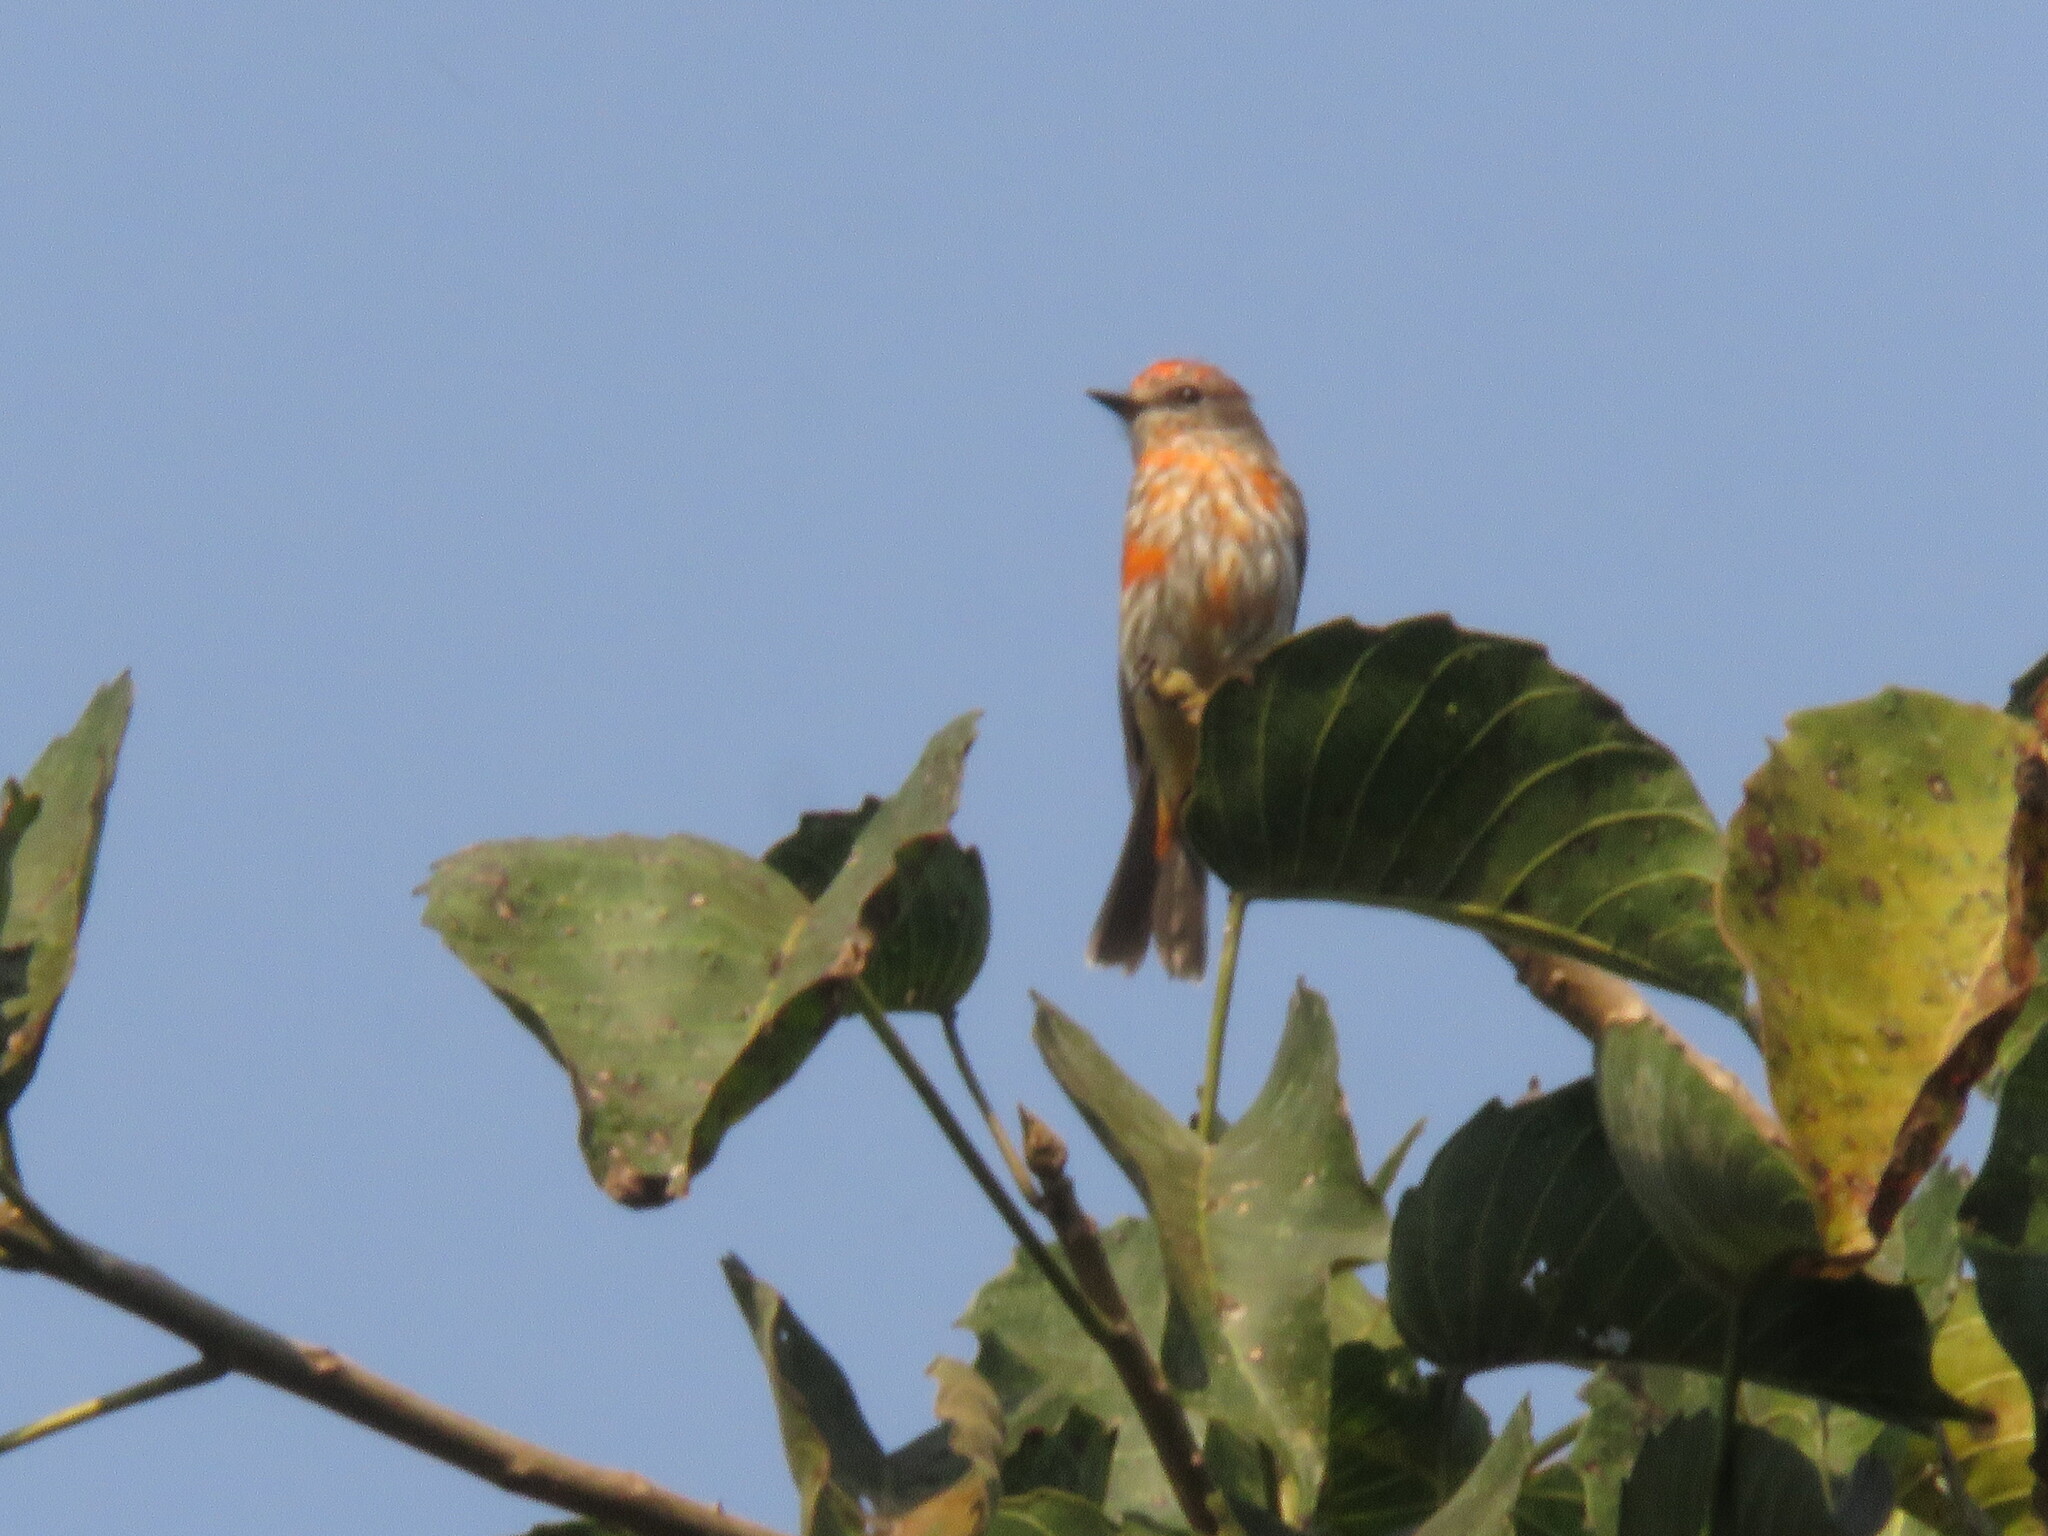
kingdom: Animalia
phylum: Chordata
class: Aves
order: Passeriformes
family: Tyrannidae
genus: Pyrocephalus
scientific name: Pyrocephalus rubinus
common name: Vermilion flycatcher
